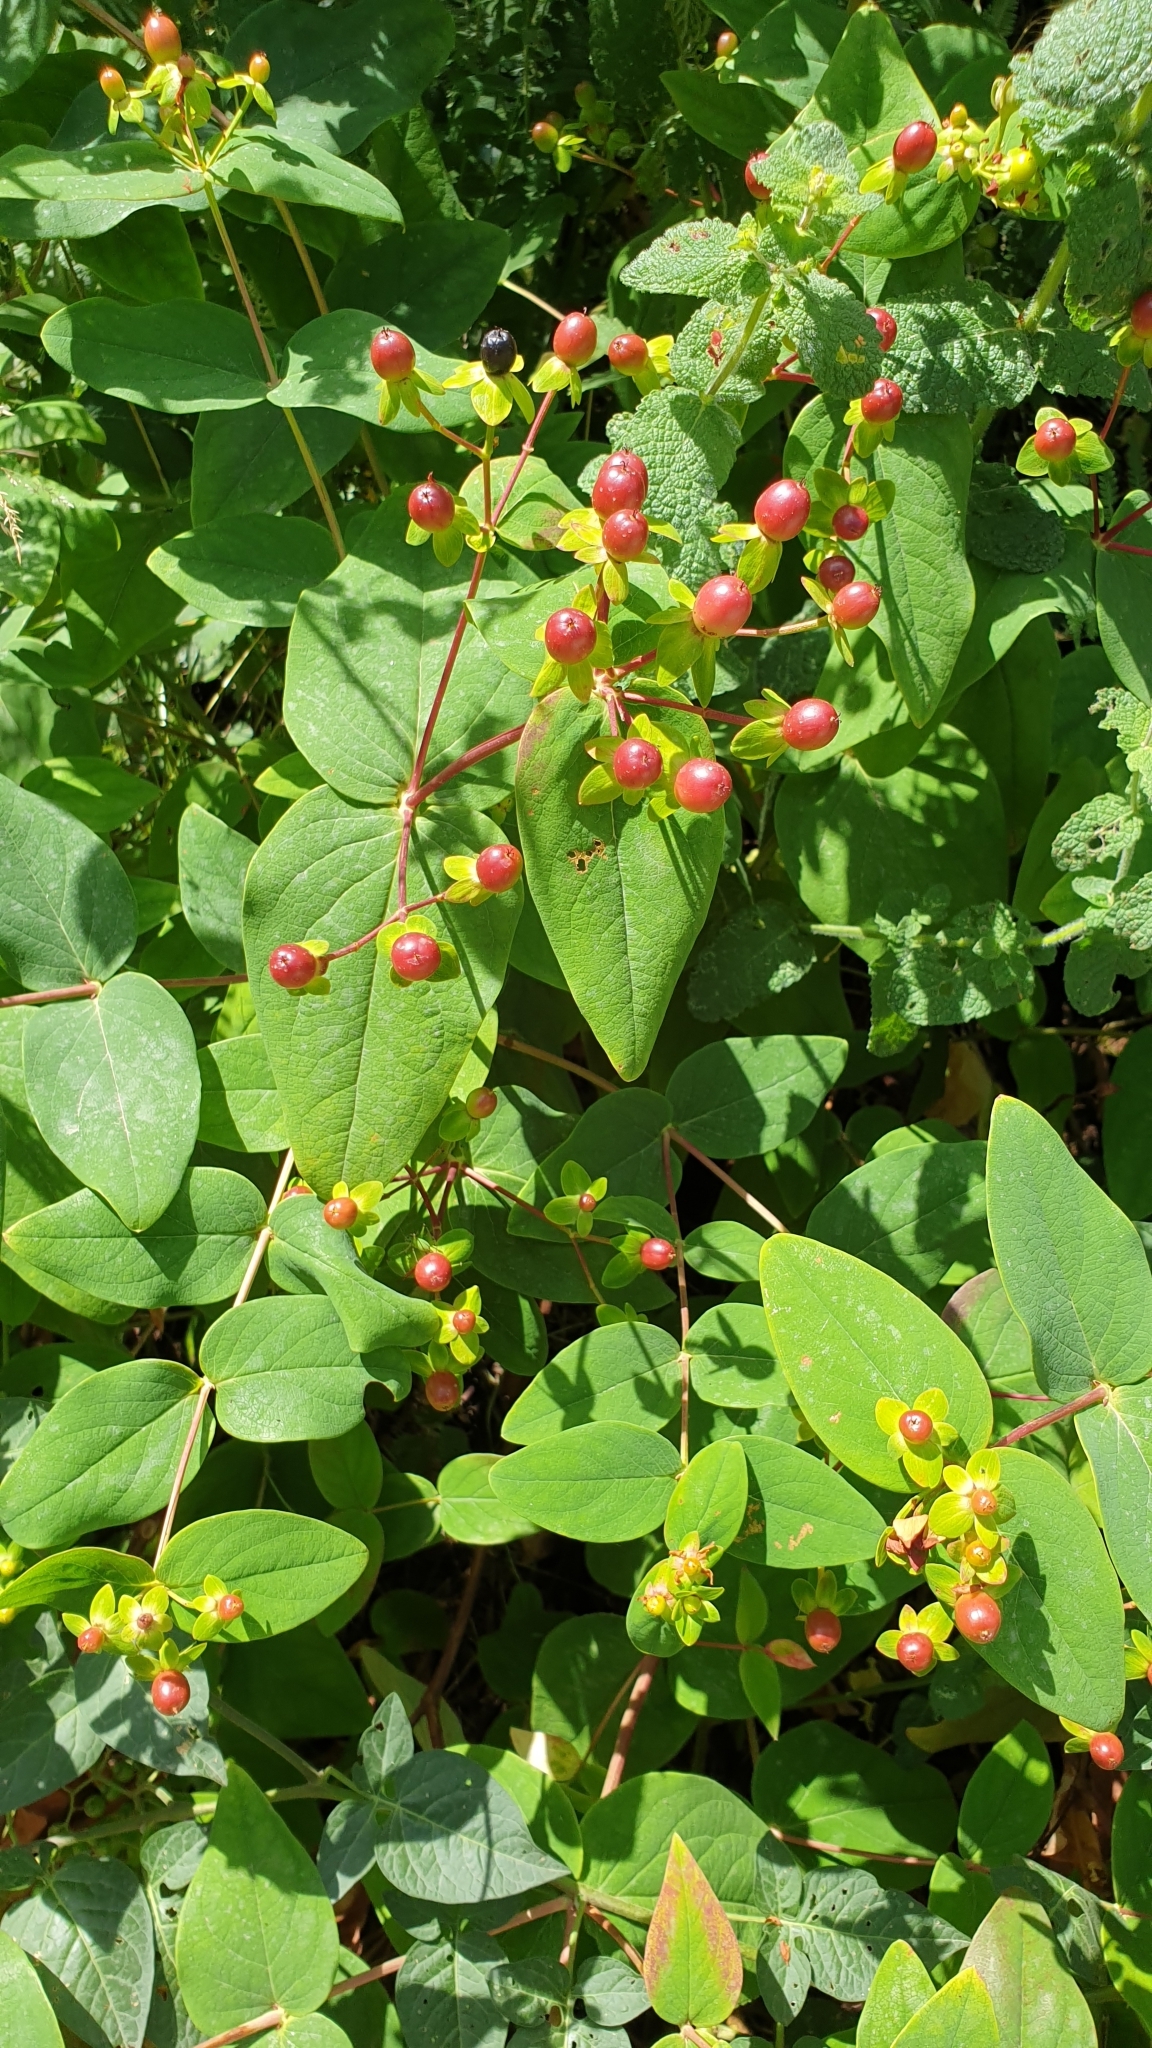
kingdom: Plantae
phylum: Tracheophyta
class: Magnoliopsida
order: Malpighiales
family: Hypericaceae
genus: Hypericum
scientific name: Hypericum androsaemum
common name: Sweet-amber
